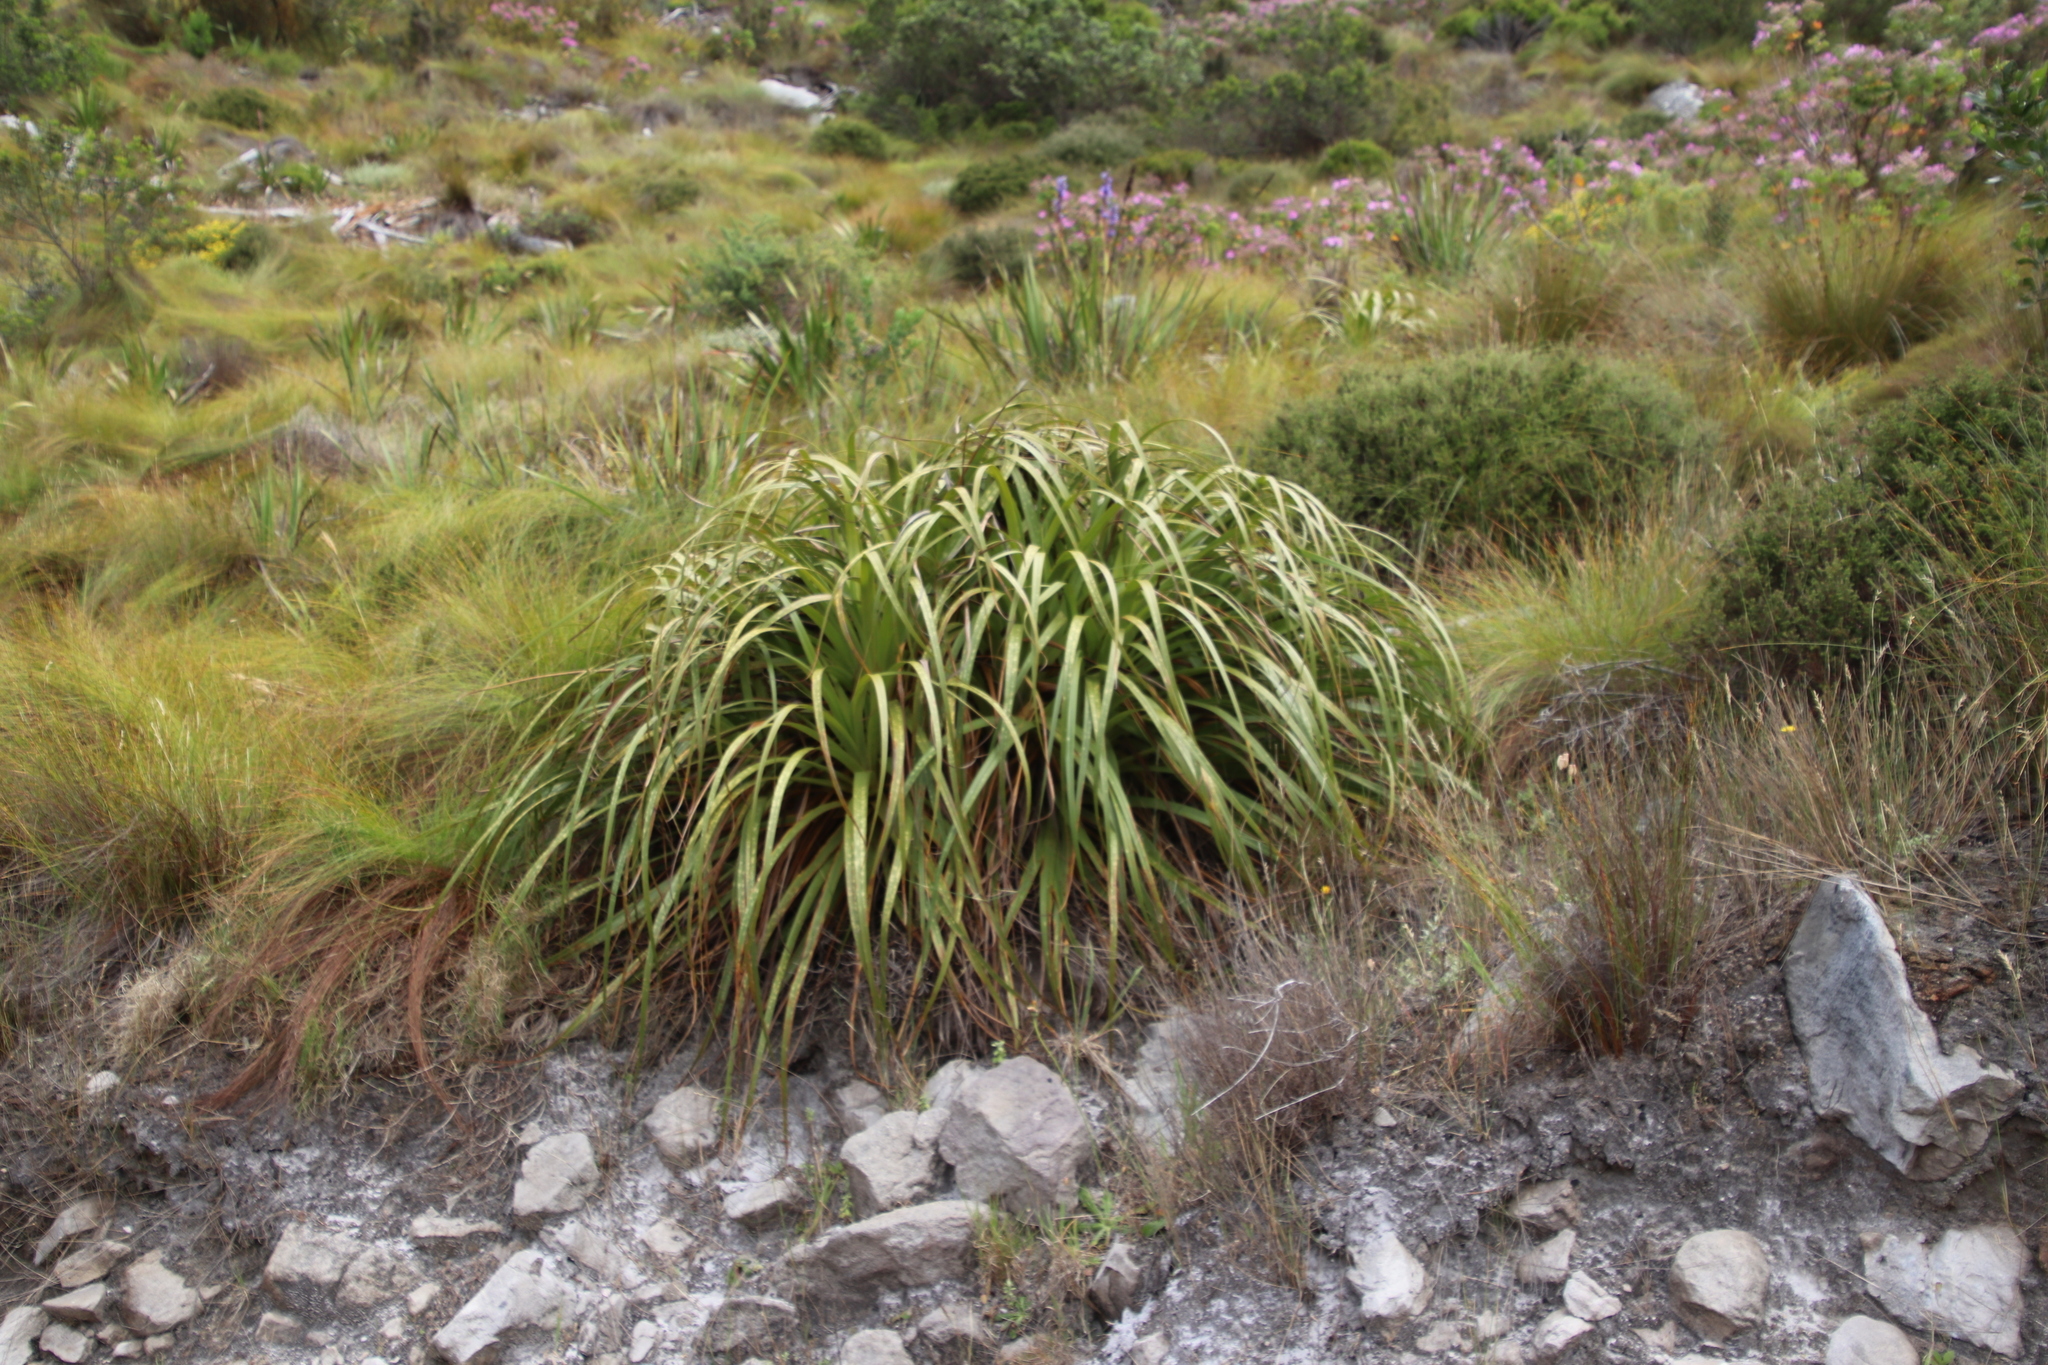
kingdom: Plantae
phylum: Tracheophyta
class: Liliopsida
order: Poales
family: Cyperaceae
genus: Tetraria
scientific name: Tetraria thermalis
